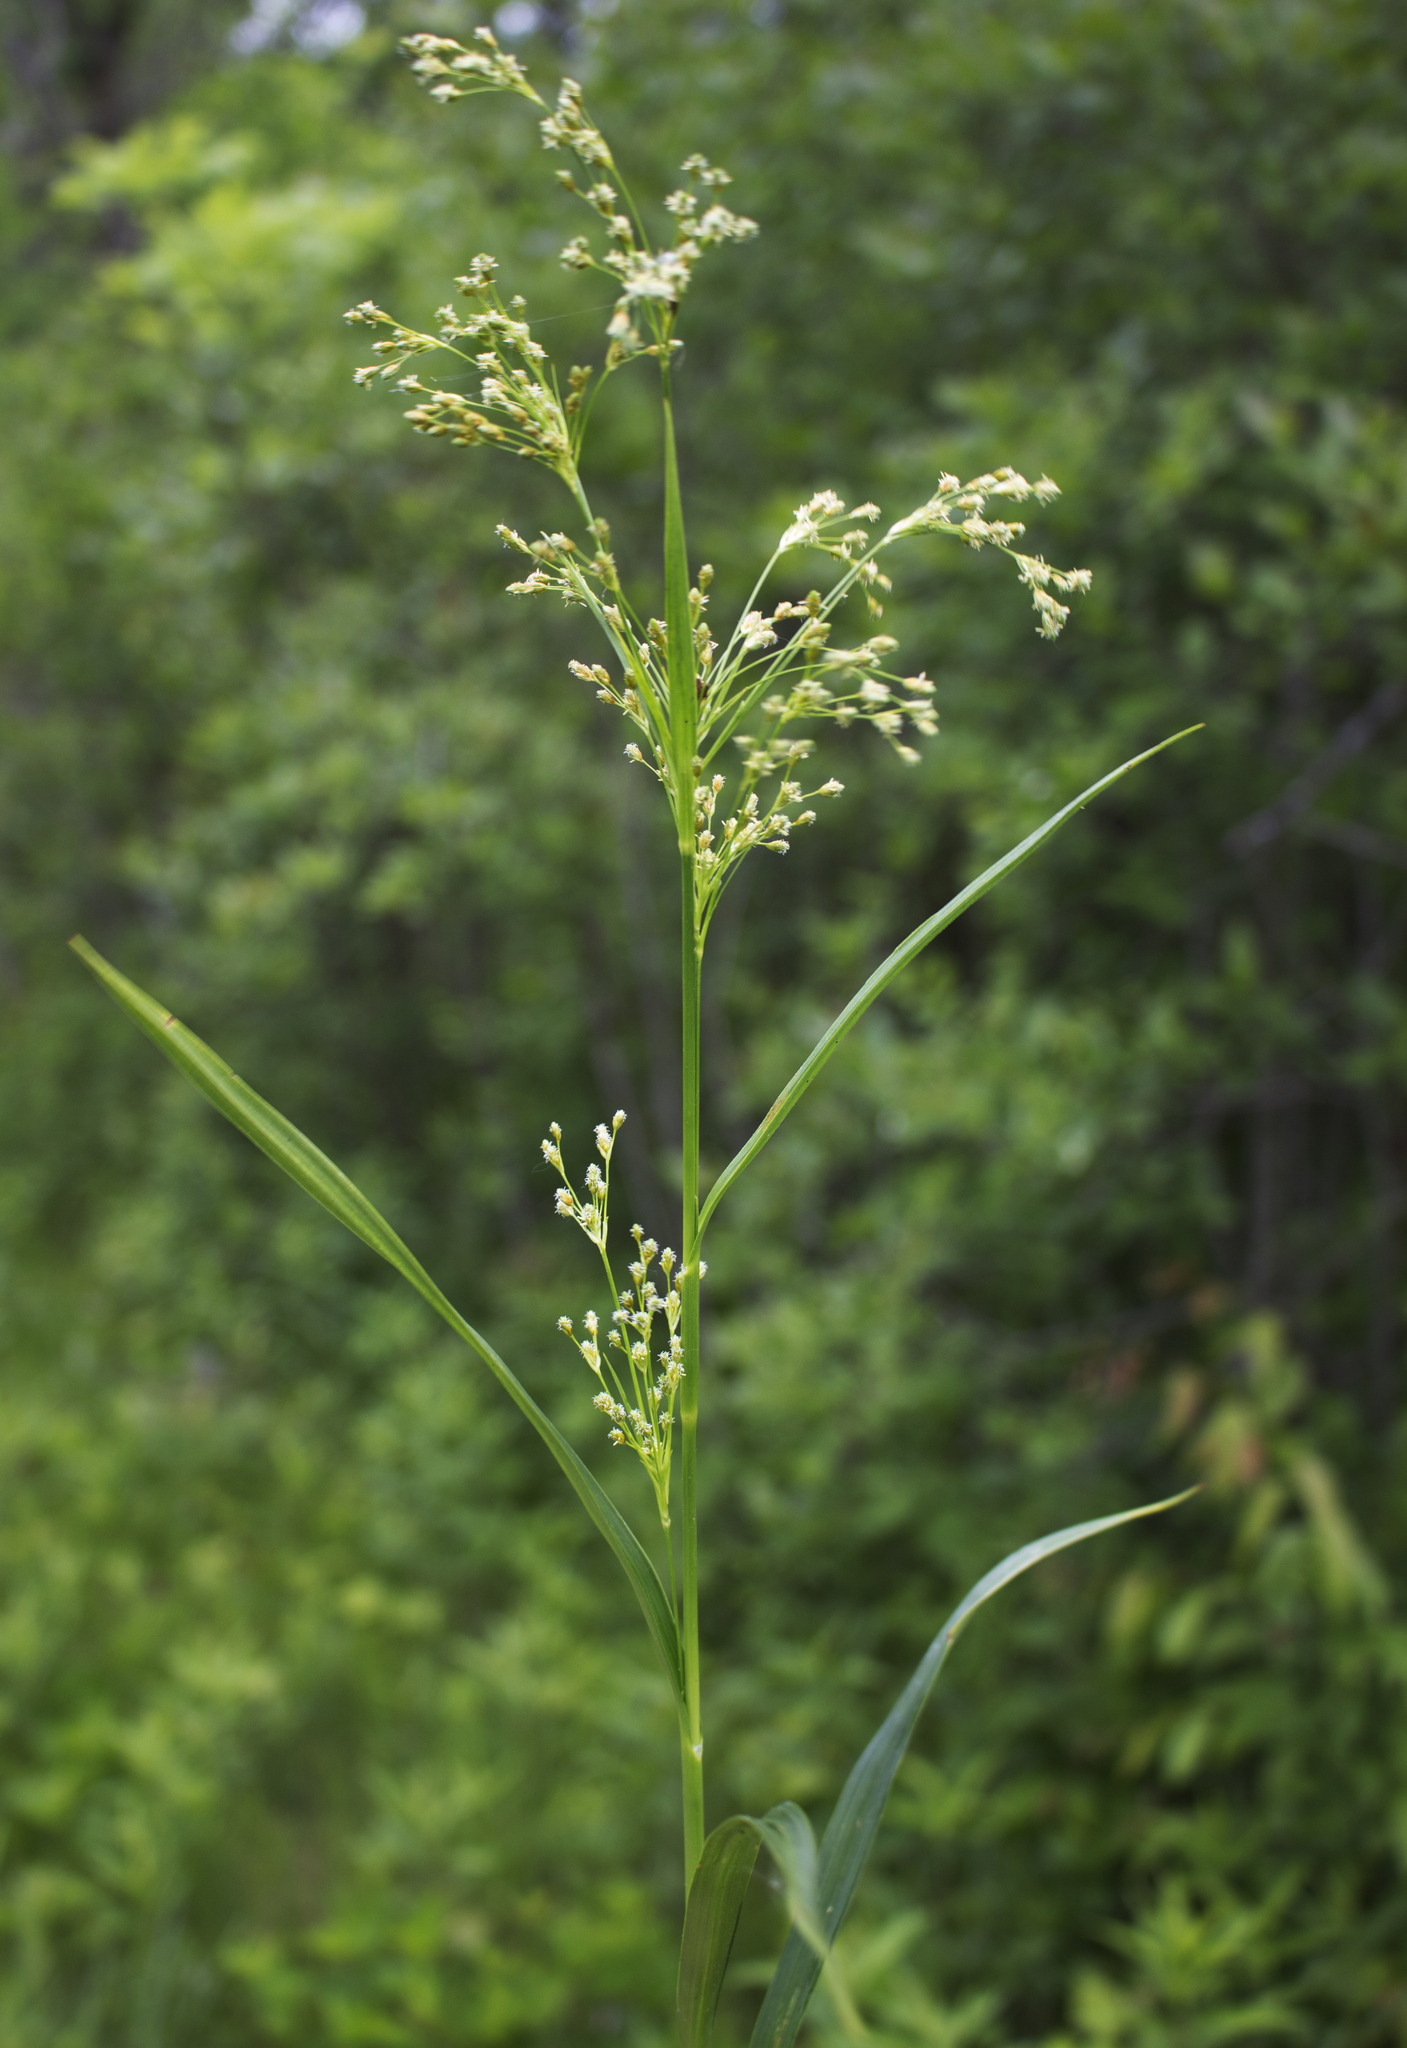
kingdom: Plantae
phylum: Tracheophyta
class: Liliopsida
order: Poales
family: Cyperaceae
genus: Scirpus
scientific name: Scirpus pendulus
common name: Nodding bulrush
